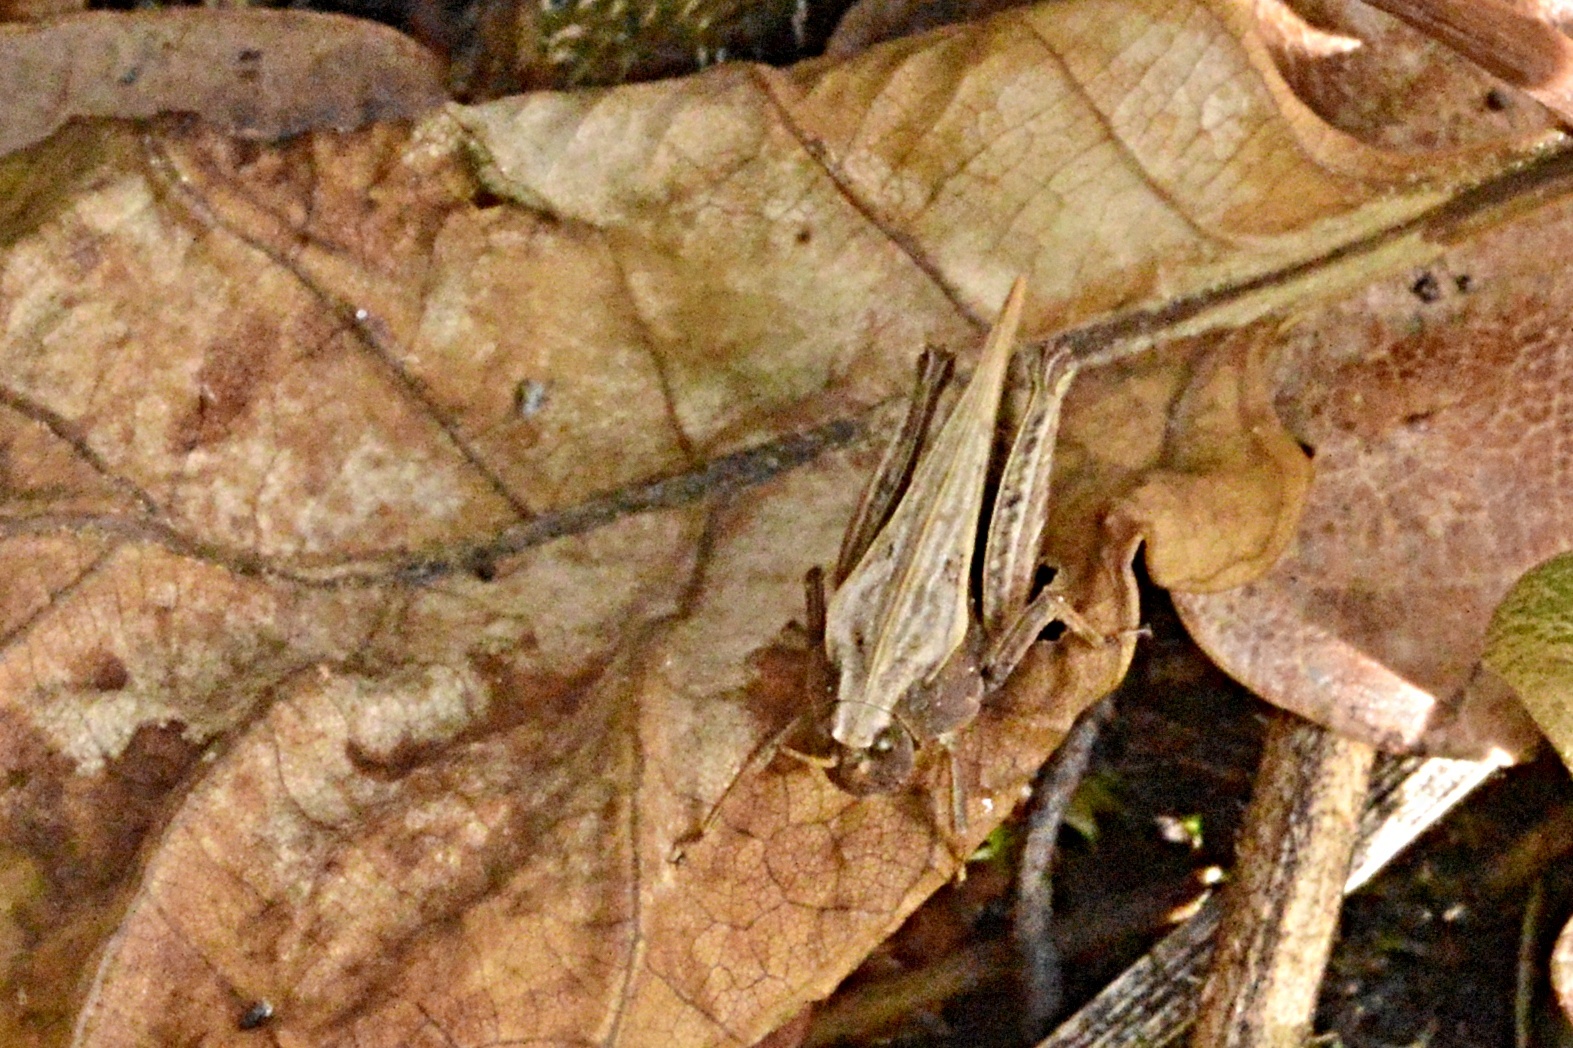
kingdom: Animalia
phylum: Arthropoda
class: Insecta
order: Orthoptera
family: Tetrigidae
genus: Tetrix
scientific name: Tetrix subulata
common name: Slender ground-hopper
